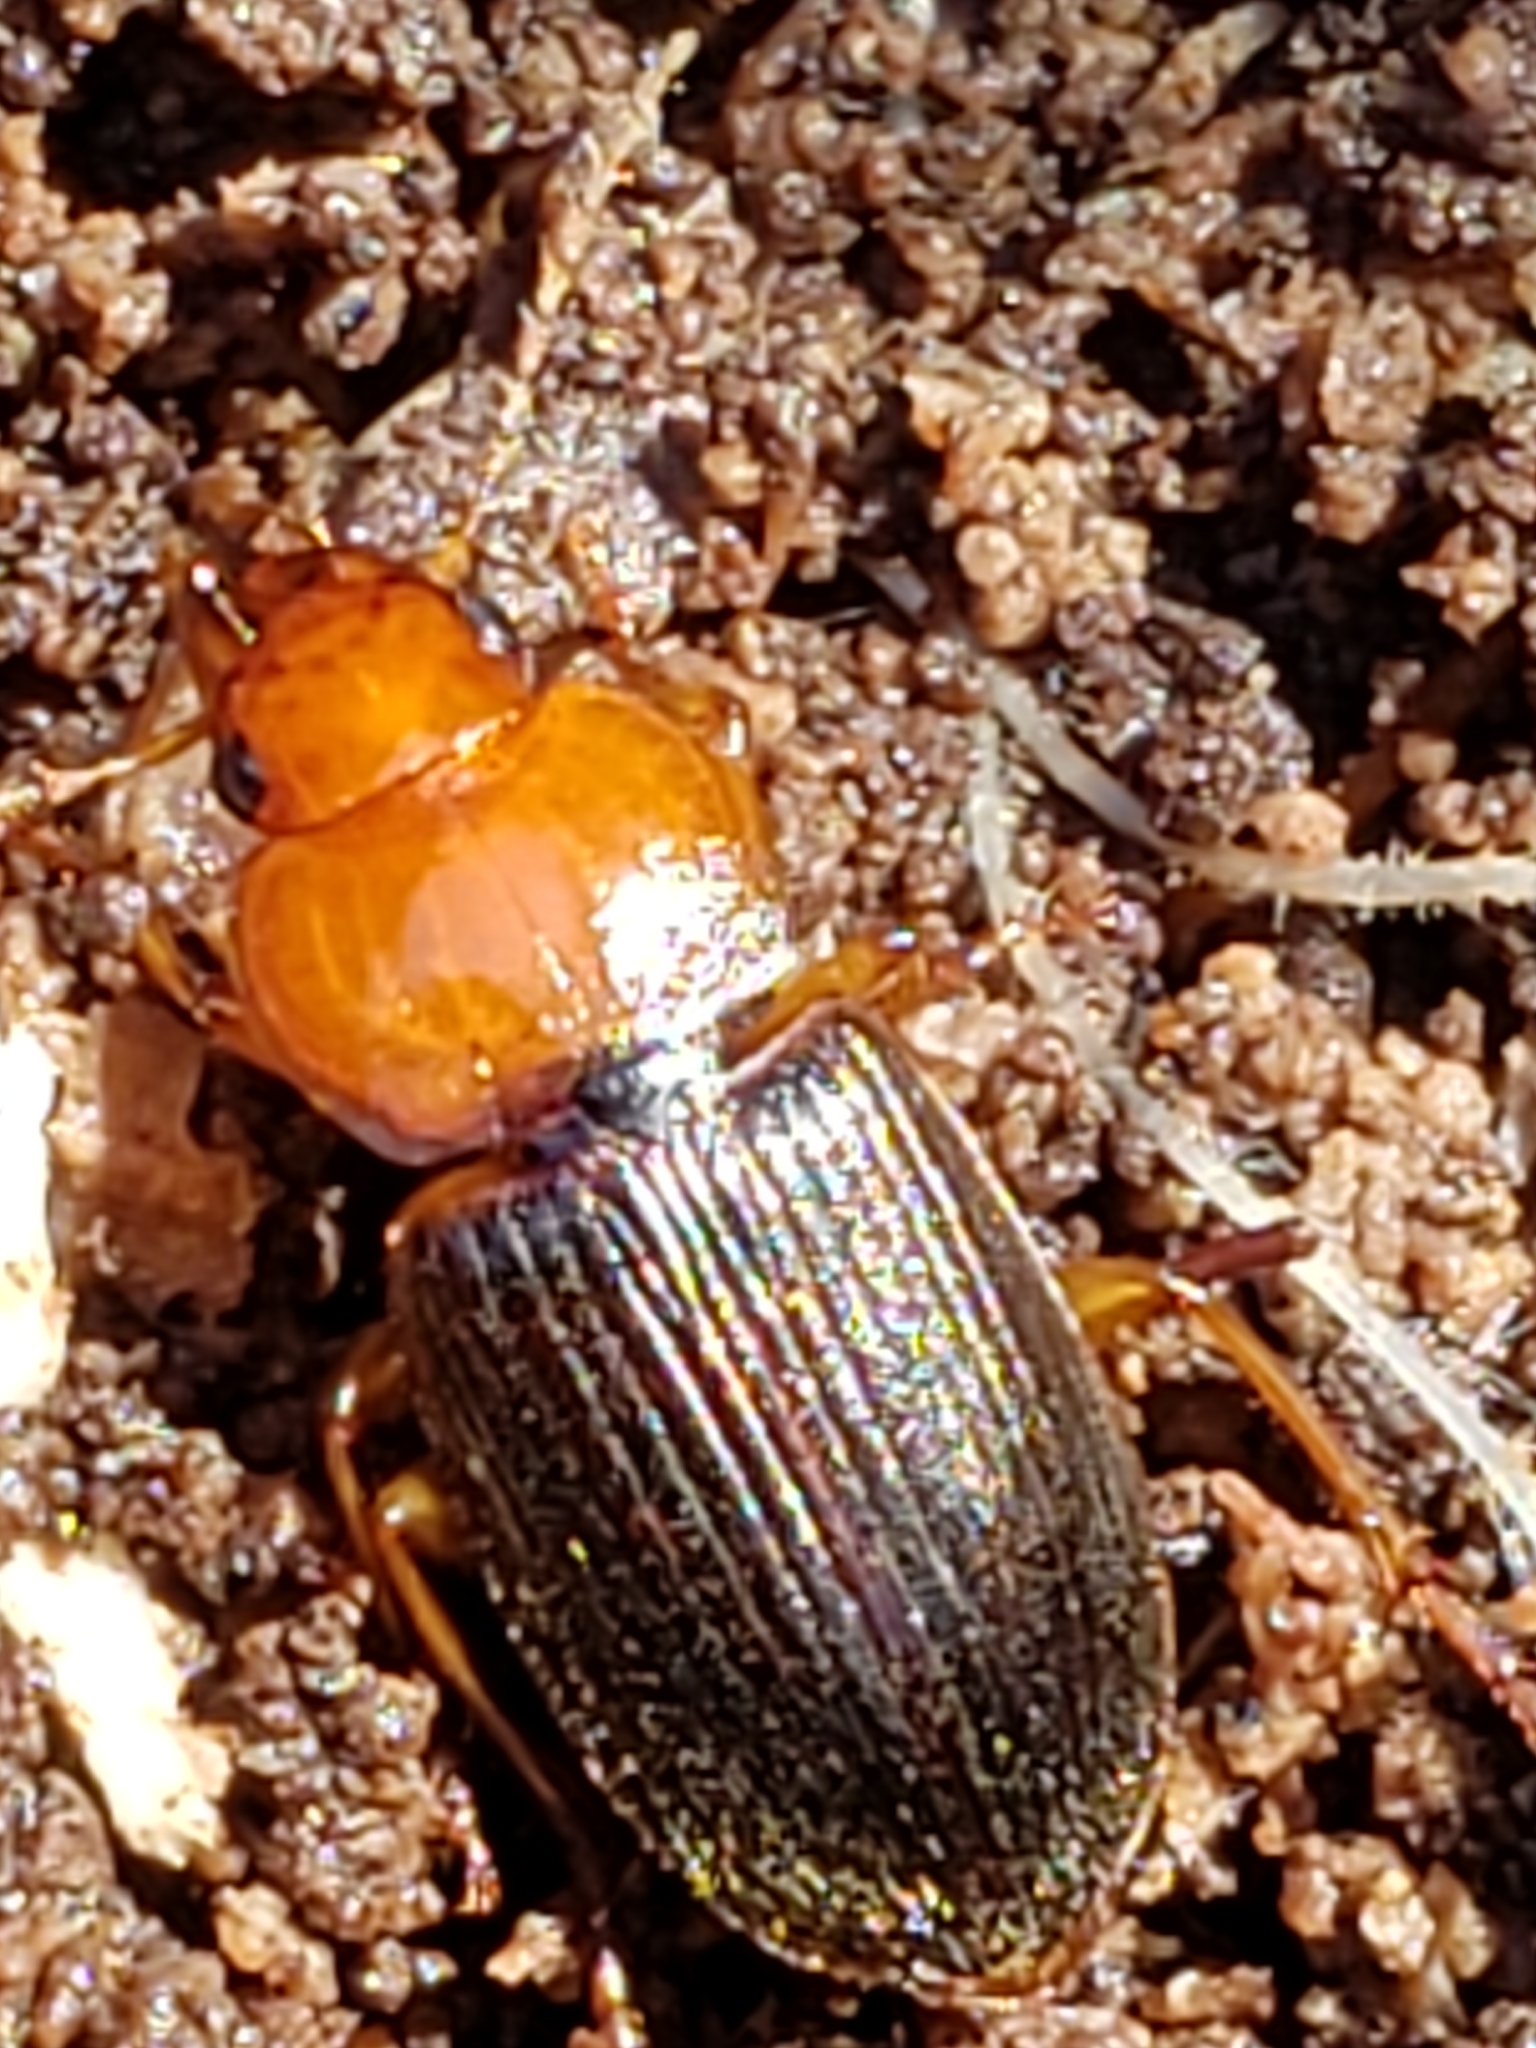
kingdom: Animalia
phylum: Arthropoda
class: Insecta
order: Coleoptera
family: Carabidae
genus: Amphasia
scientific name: Amphasia interstitialis
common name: Red-headed ground beetle
